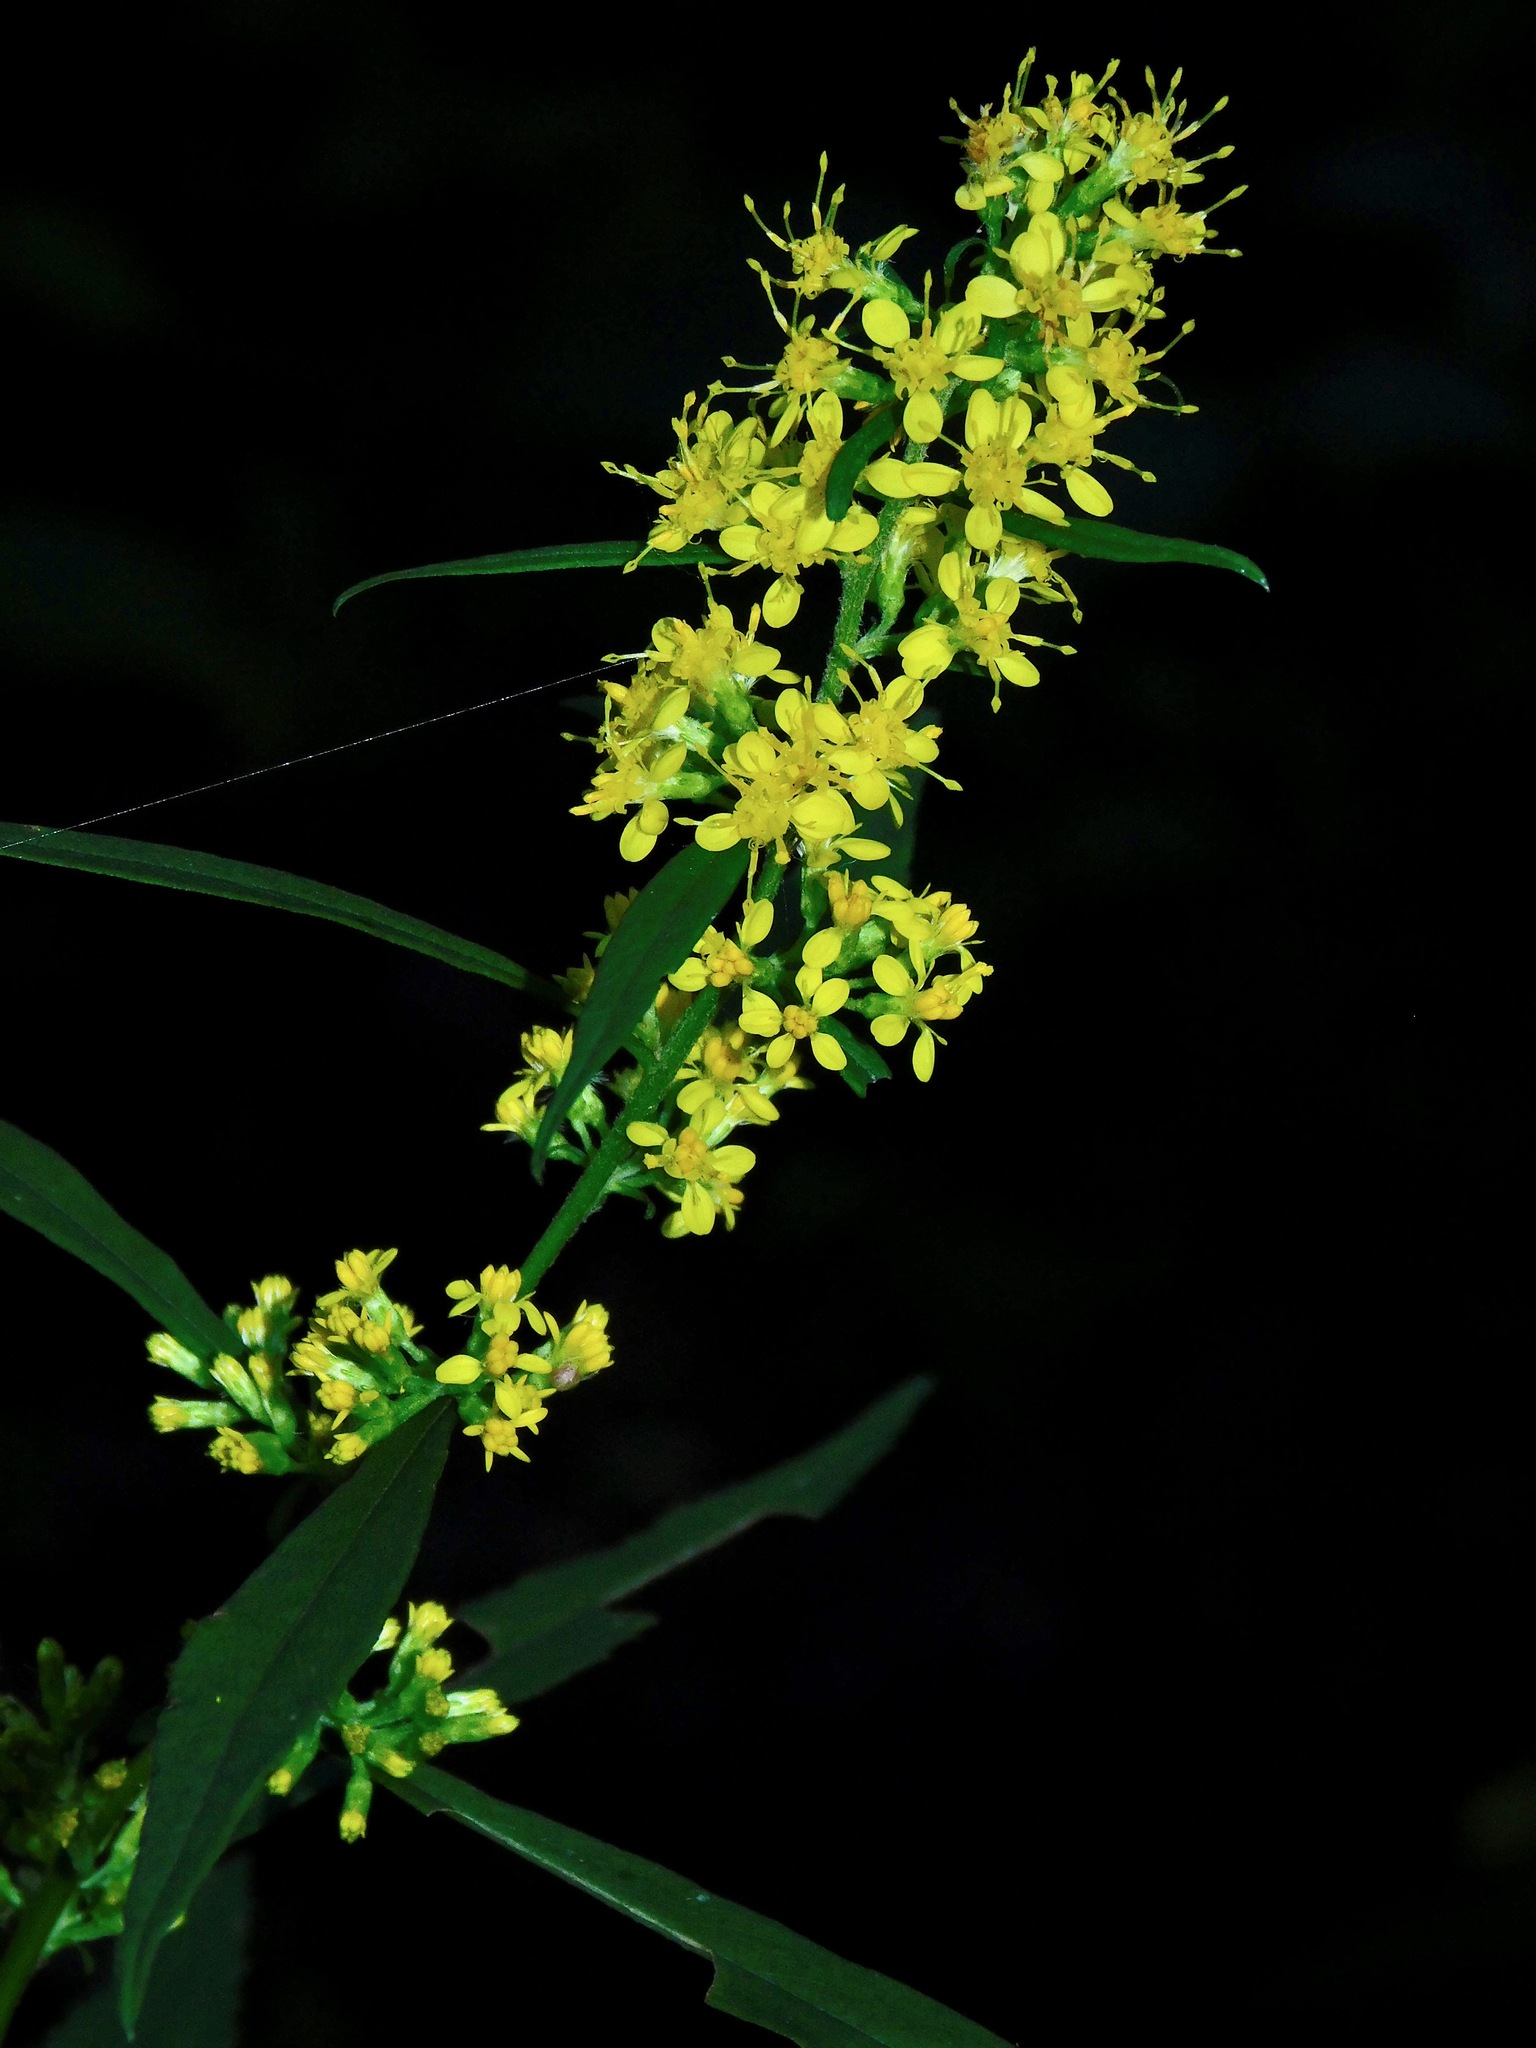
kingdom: Plantae
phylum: Tracheophyta
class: Magnoliopsida
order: Asterales
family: Asteraceae
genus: Solidago
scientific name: Solidago caesia
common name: Woodland goldenrod
